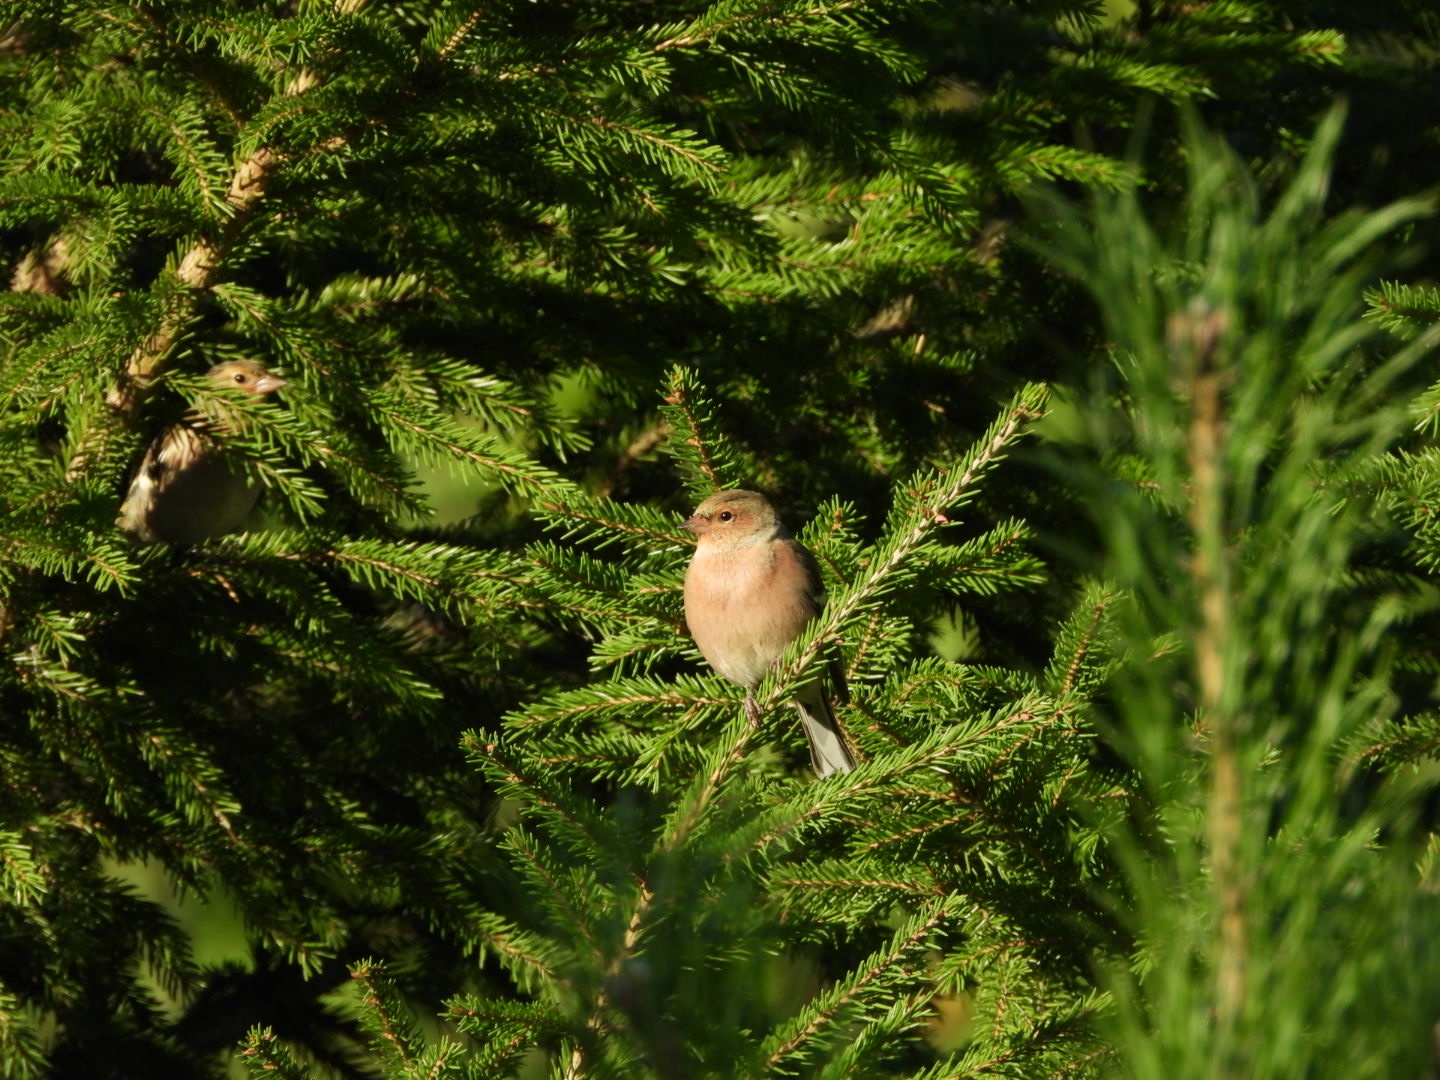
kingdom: Animalia
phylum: Chordata
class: Aves
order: Passeriformes
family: Fringillidae
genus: Fringilla
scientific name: Fringilla coelebs
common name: Common chaffinch
